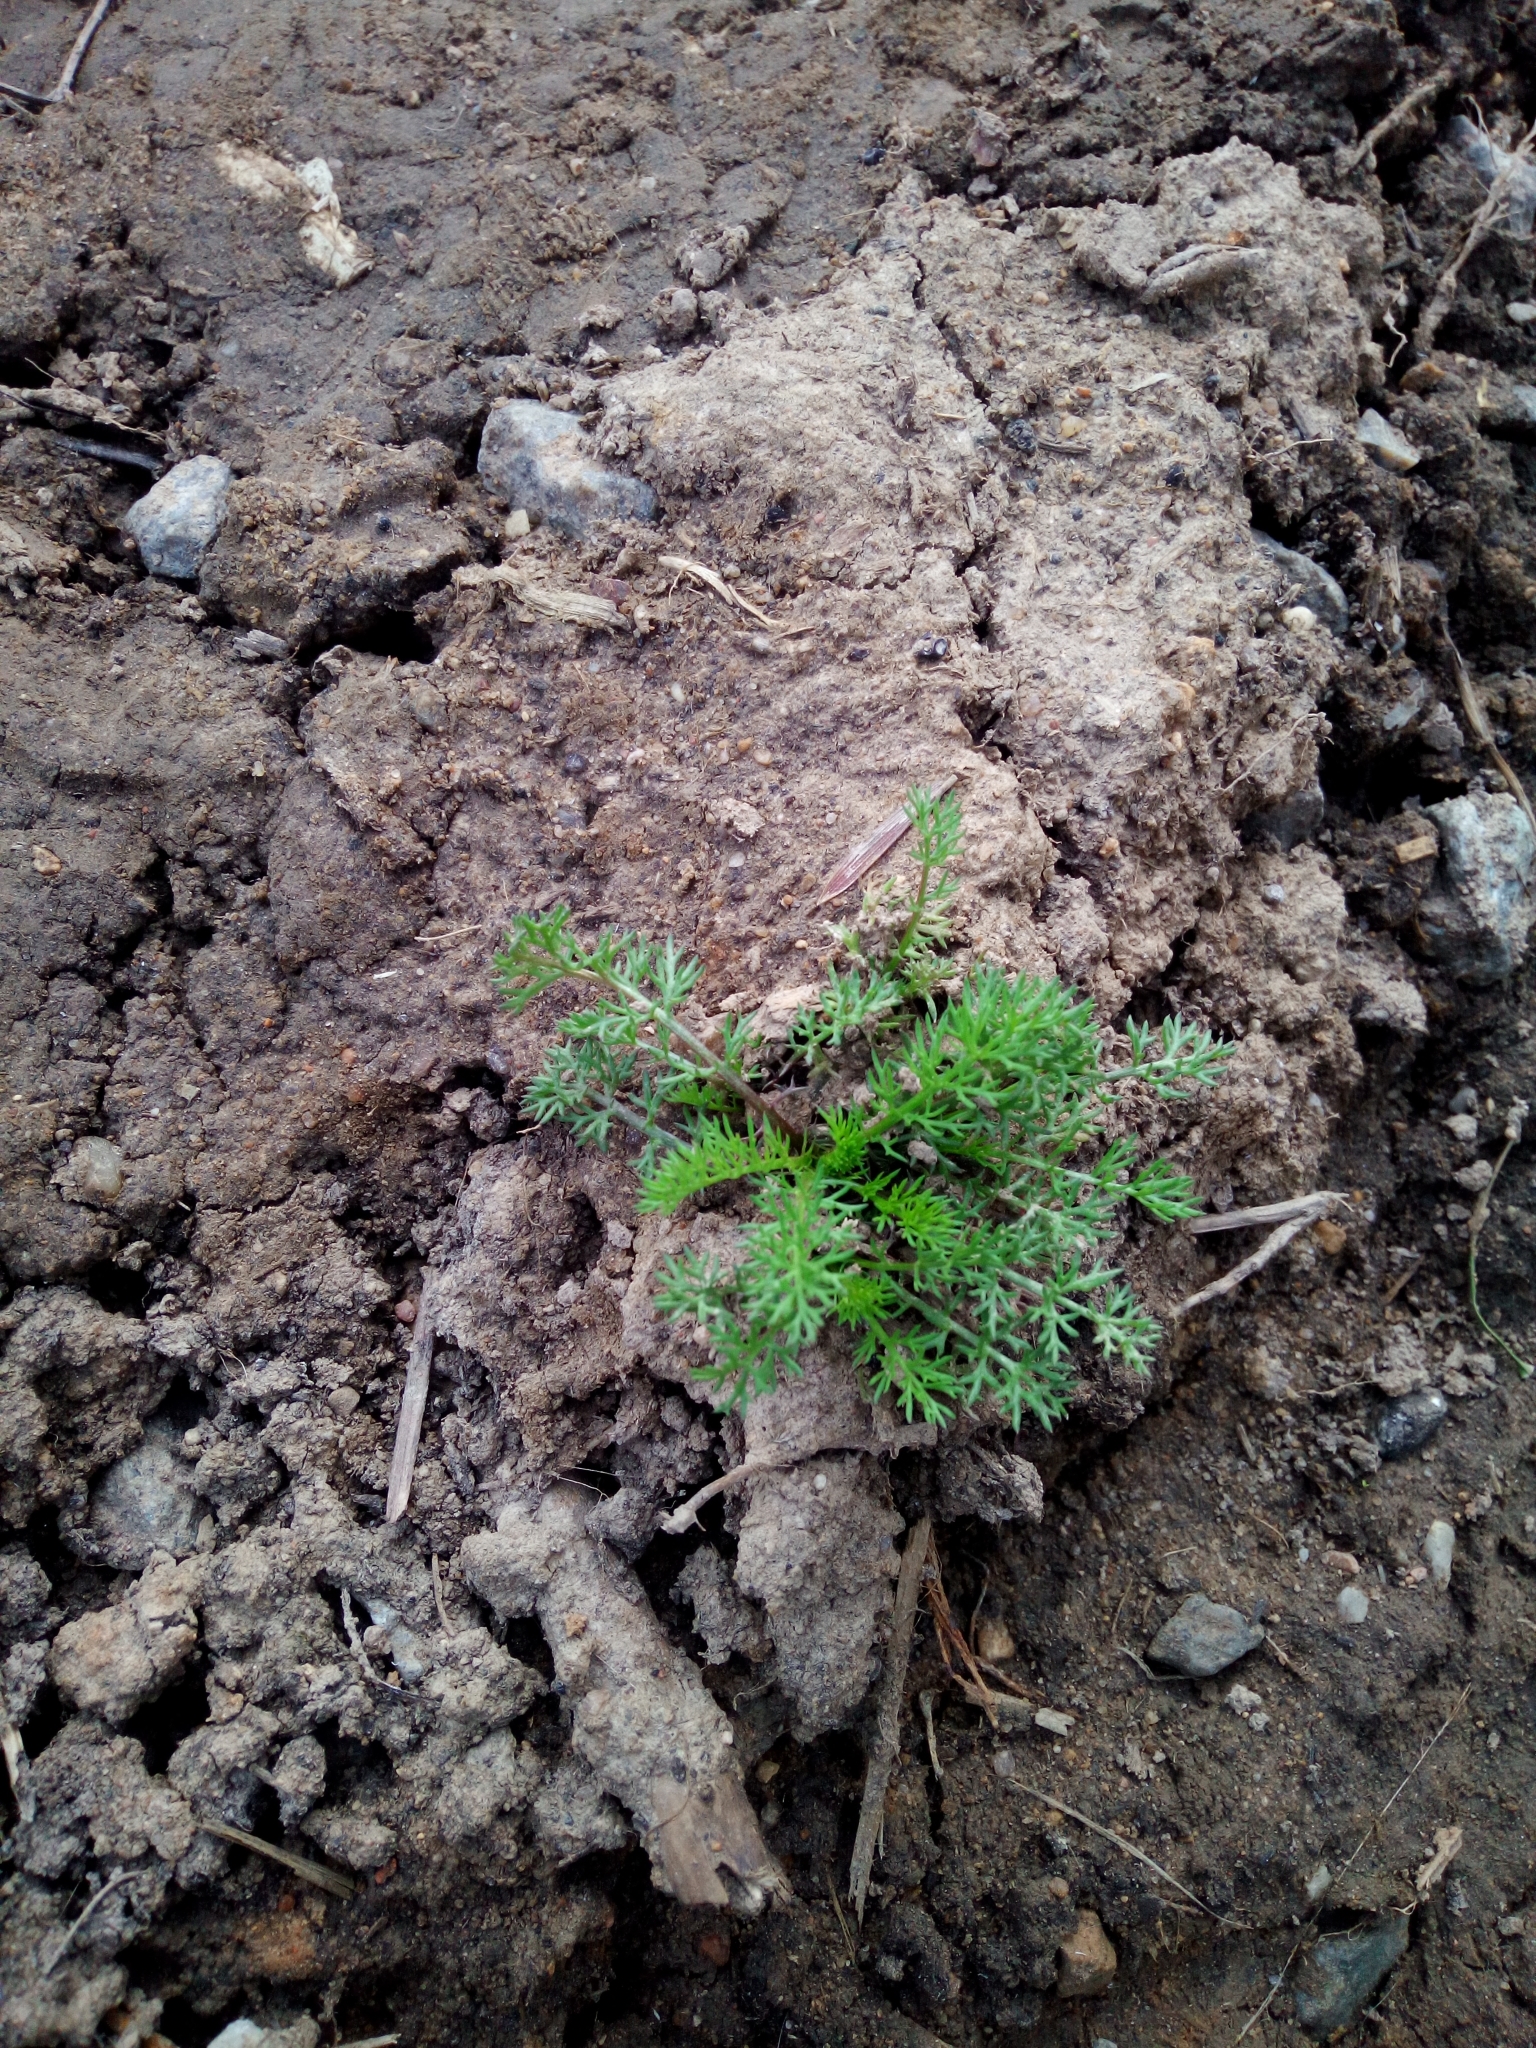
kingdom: Plantae
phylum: Tracheophyta
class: Magnoliopsida
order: Asterales
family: Asteraceae
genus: Tripleurospermum
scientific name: Tripleurospermum inodorum
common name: Scentless mayweed
